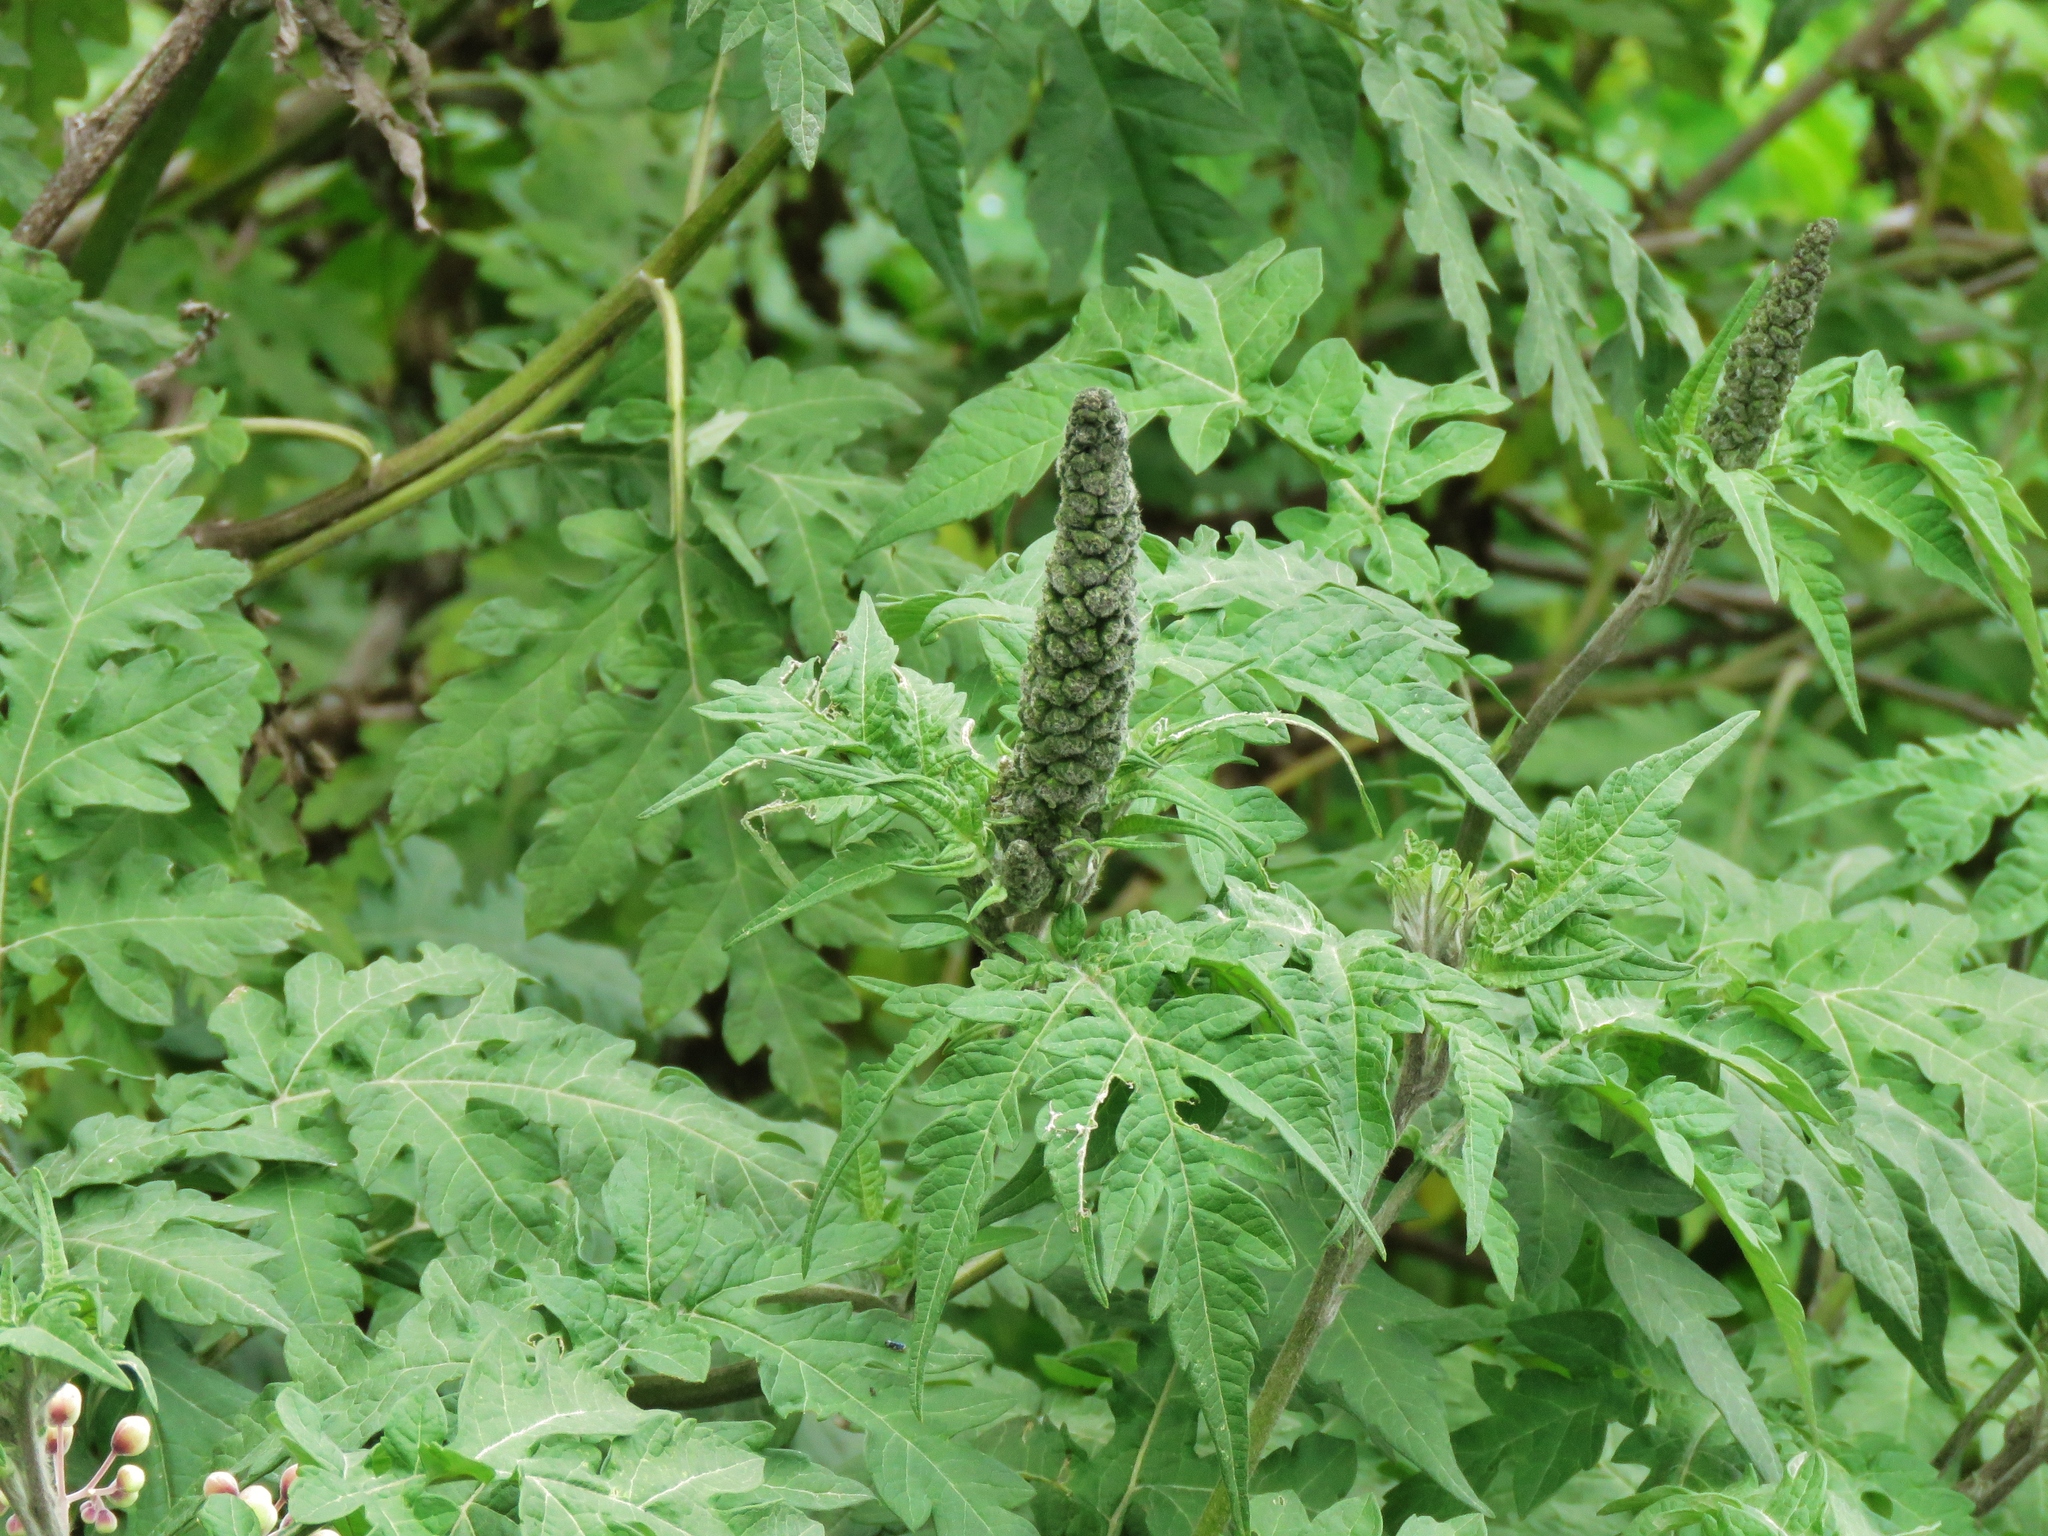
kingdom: Plantae
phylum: Tracheophyta
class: Magnoliopsida
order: Asterales
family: Asteraceae
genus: Ambrosia
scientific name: Ambrosia arborescens
